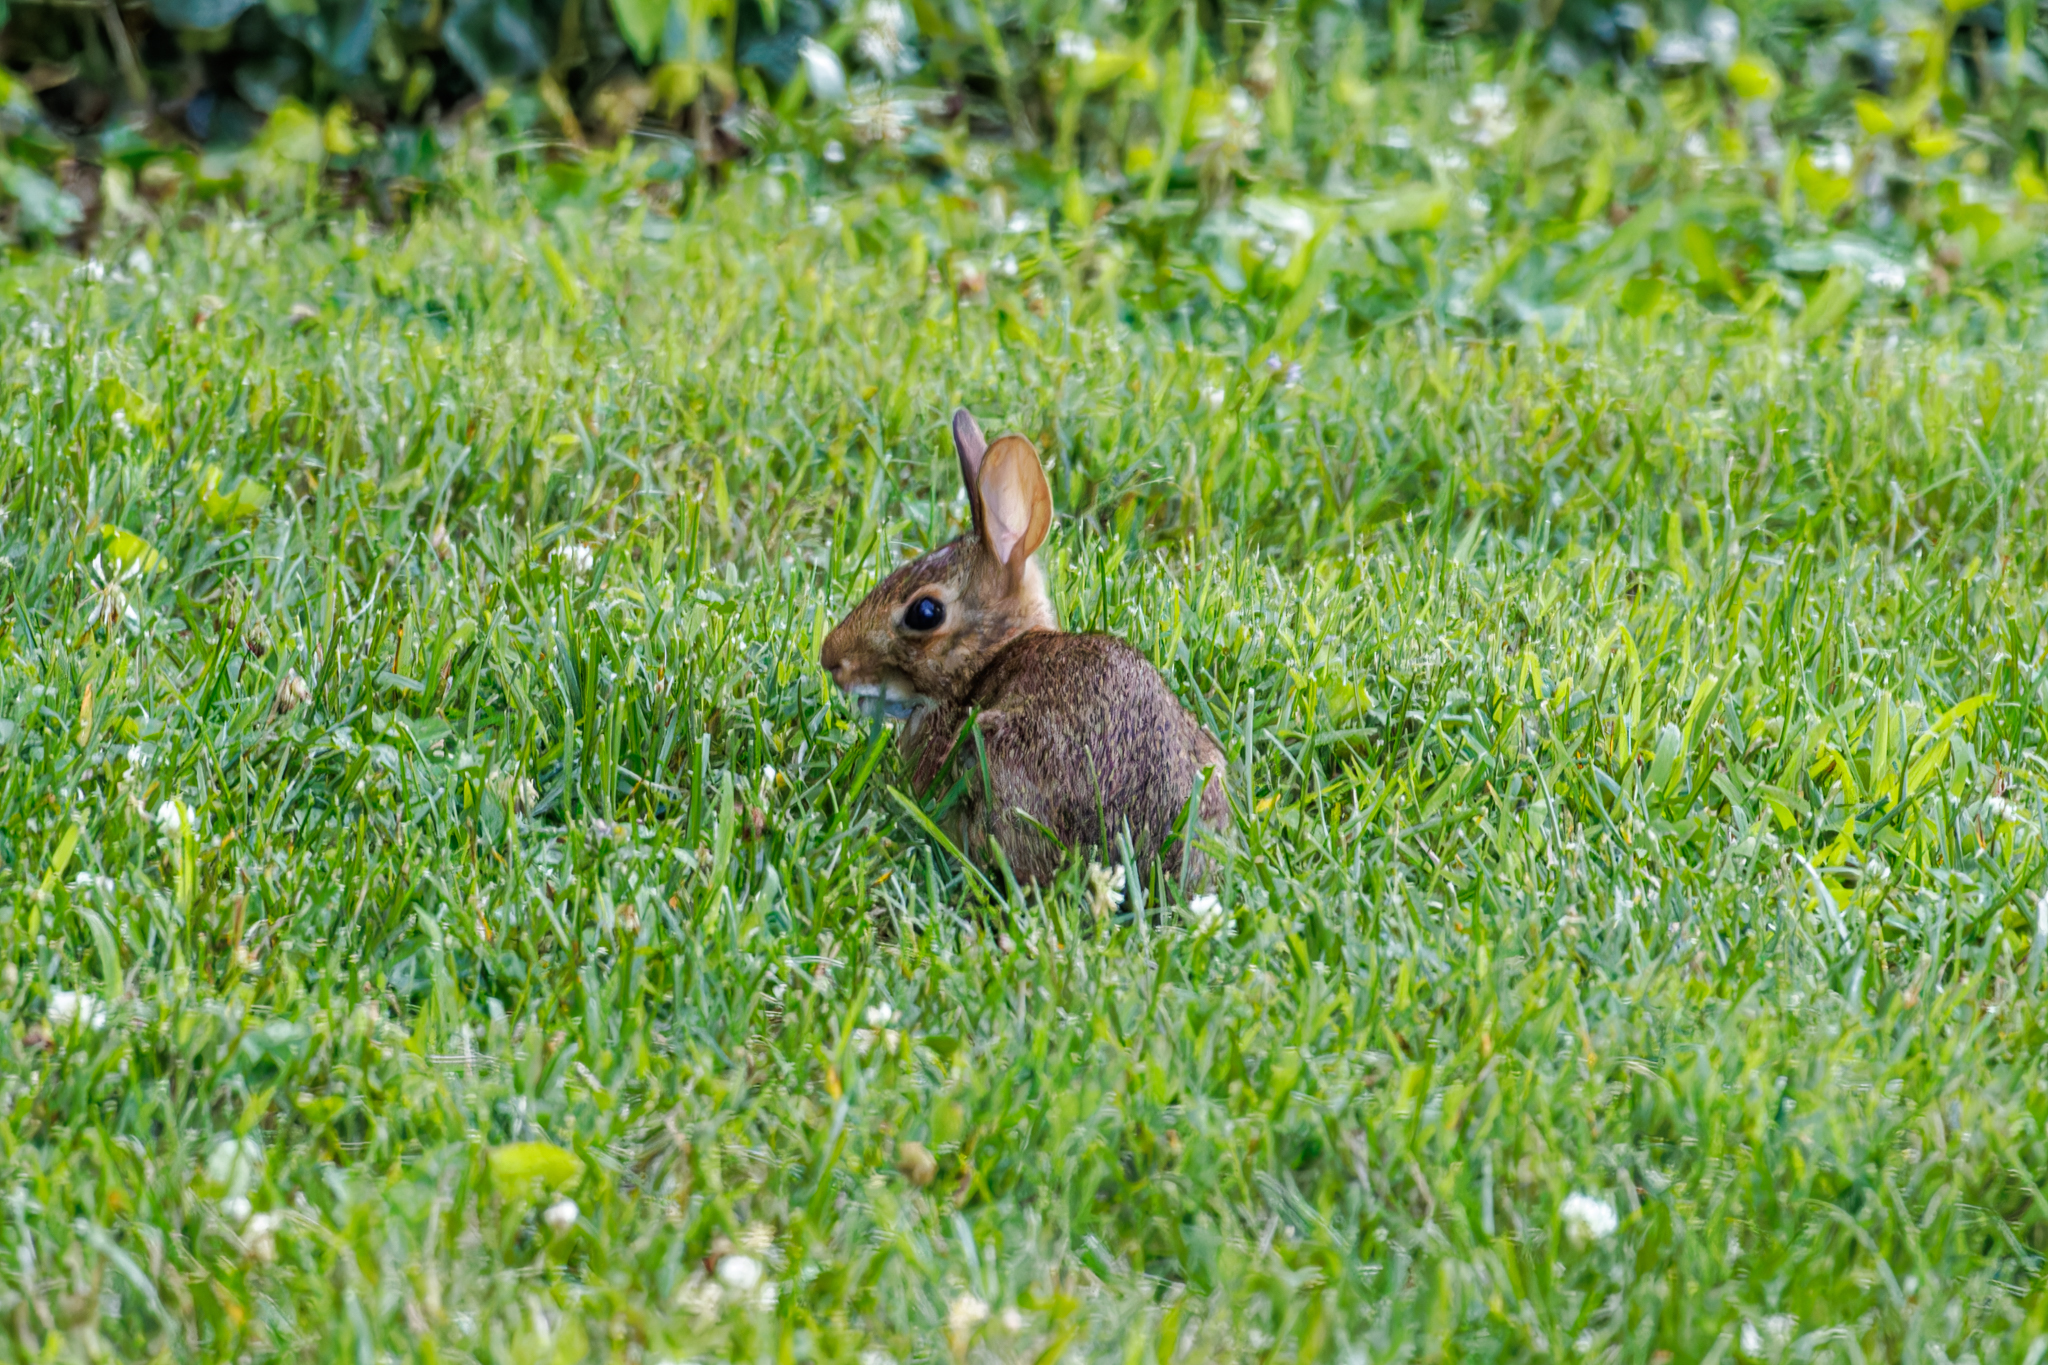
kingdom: Animalia
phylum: Chordata
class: Mammalia
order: Lagomorpha
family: Leporidae
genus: Sylvilagus
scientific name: Sylvilagus floridanus
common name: Eastern cottontail
